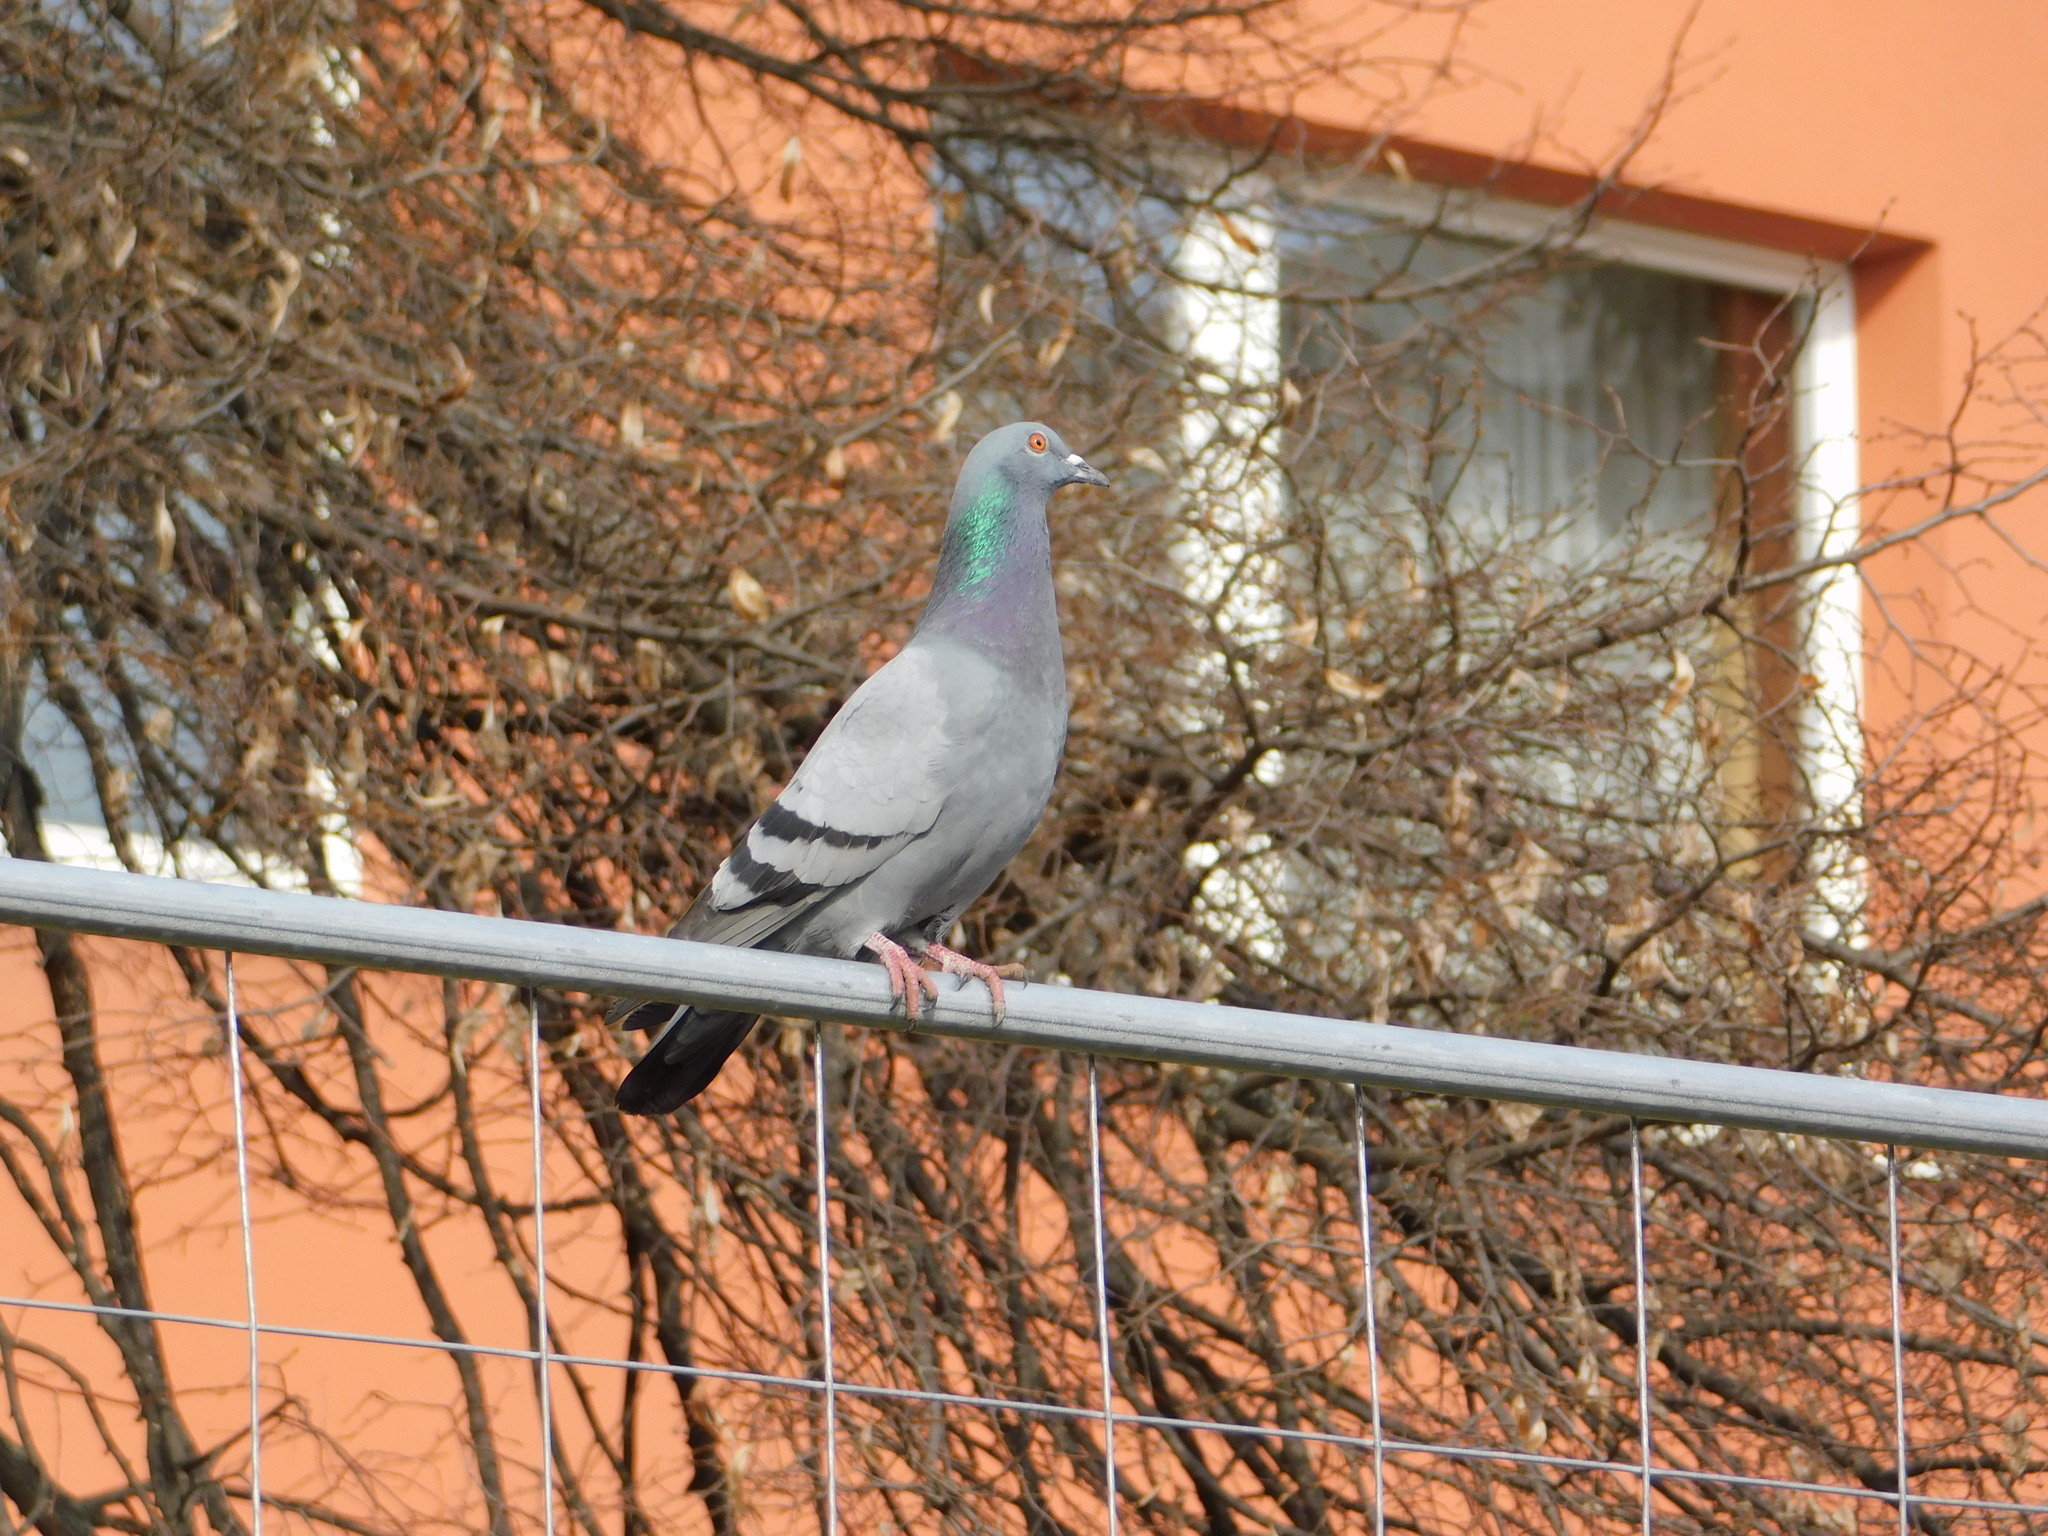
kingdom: Animalia
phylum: Chordata
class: Aves
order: Columbiformes
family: Columbidae
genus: Columba
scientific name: Columba livia
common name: Rock pigeon
